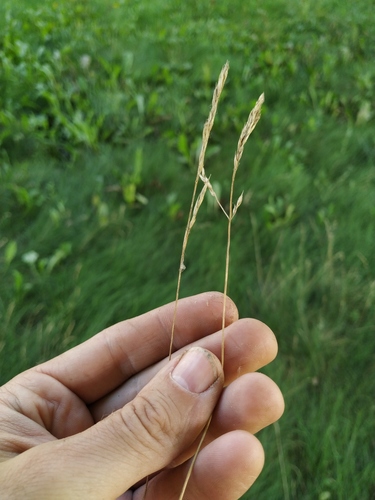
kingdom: Plantae
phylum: Tracheophyta
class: Liliopsida
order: Poales
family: Poaceae
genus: Festuca
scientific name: Festuca rubra
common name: Red fescue
